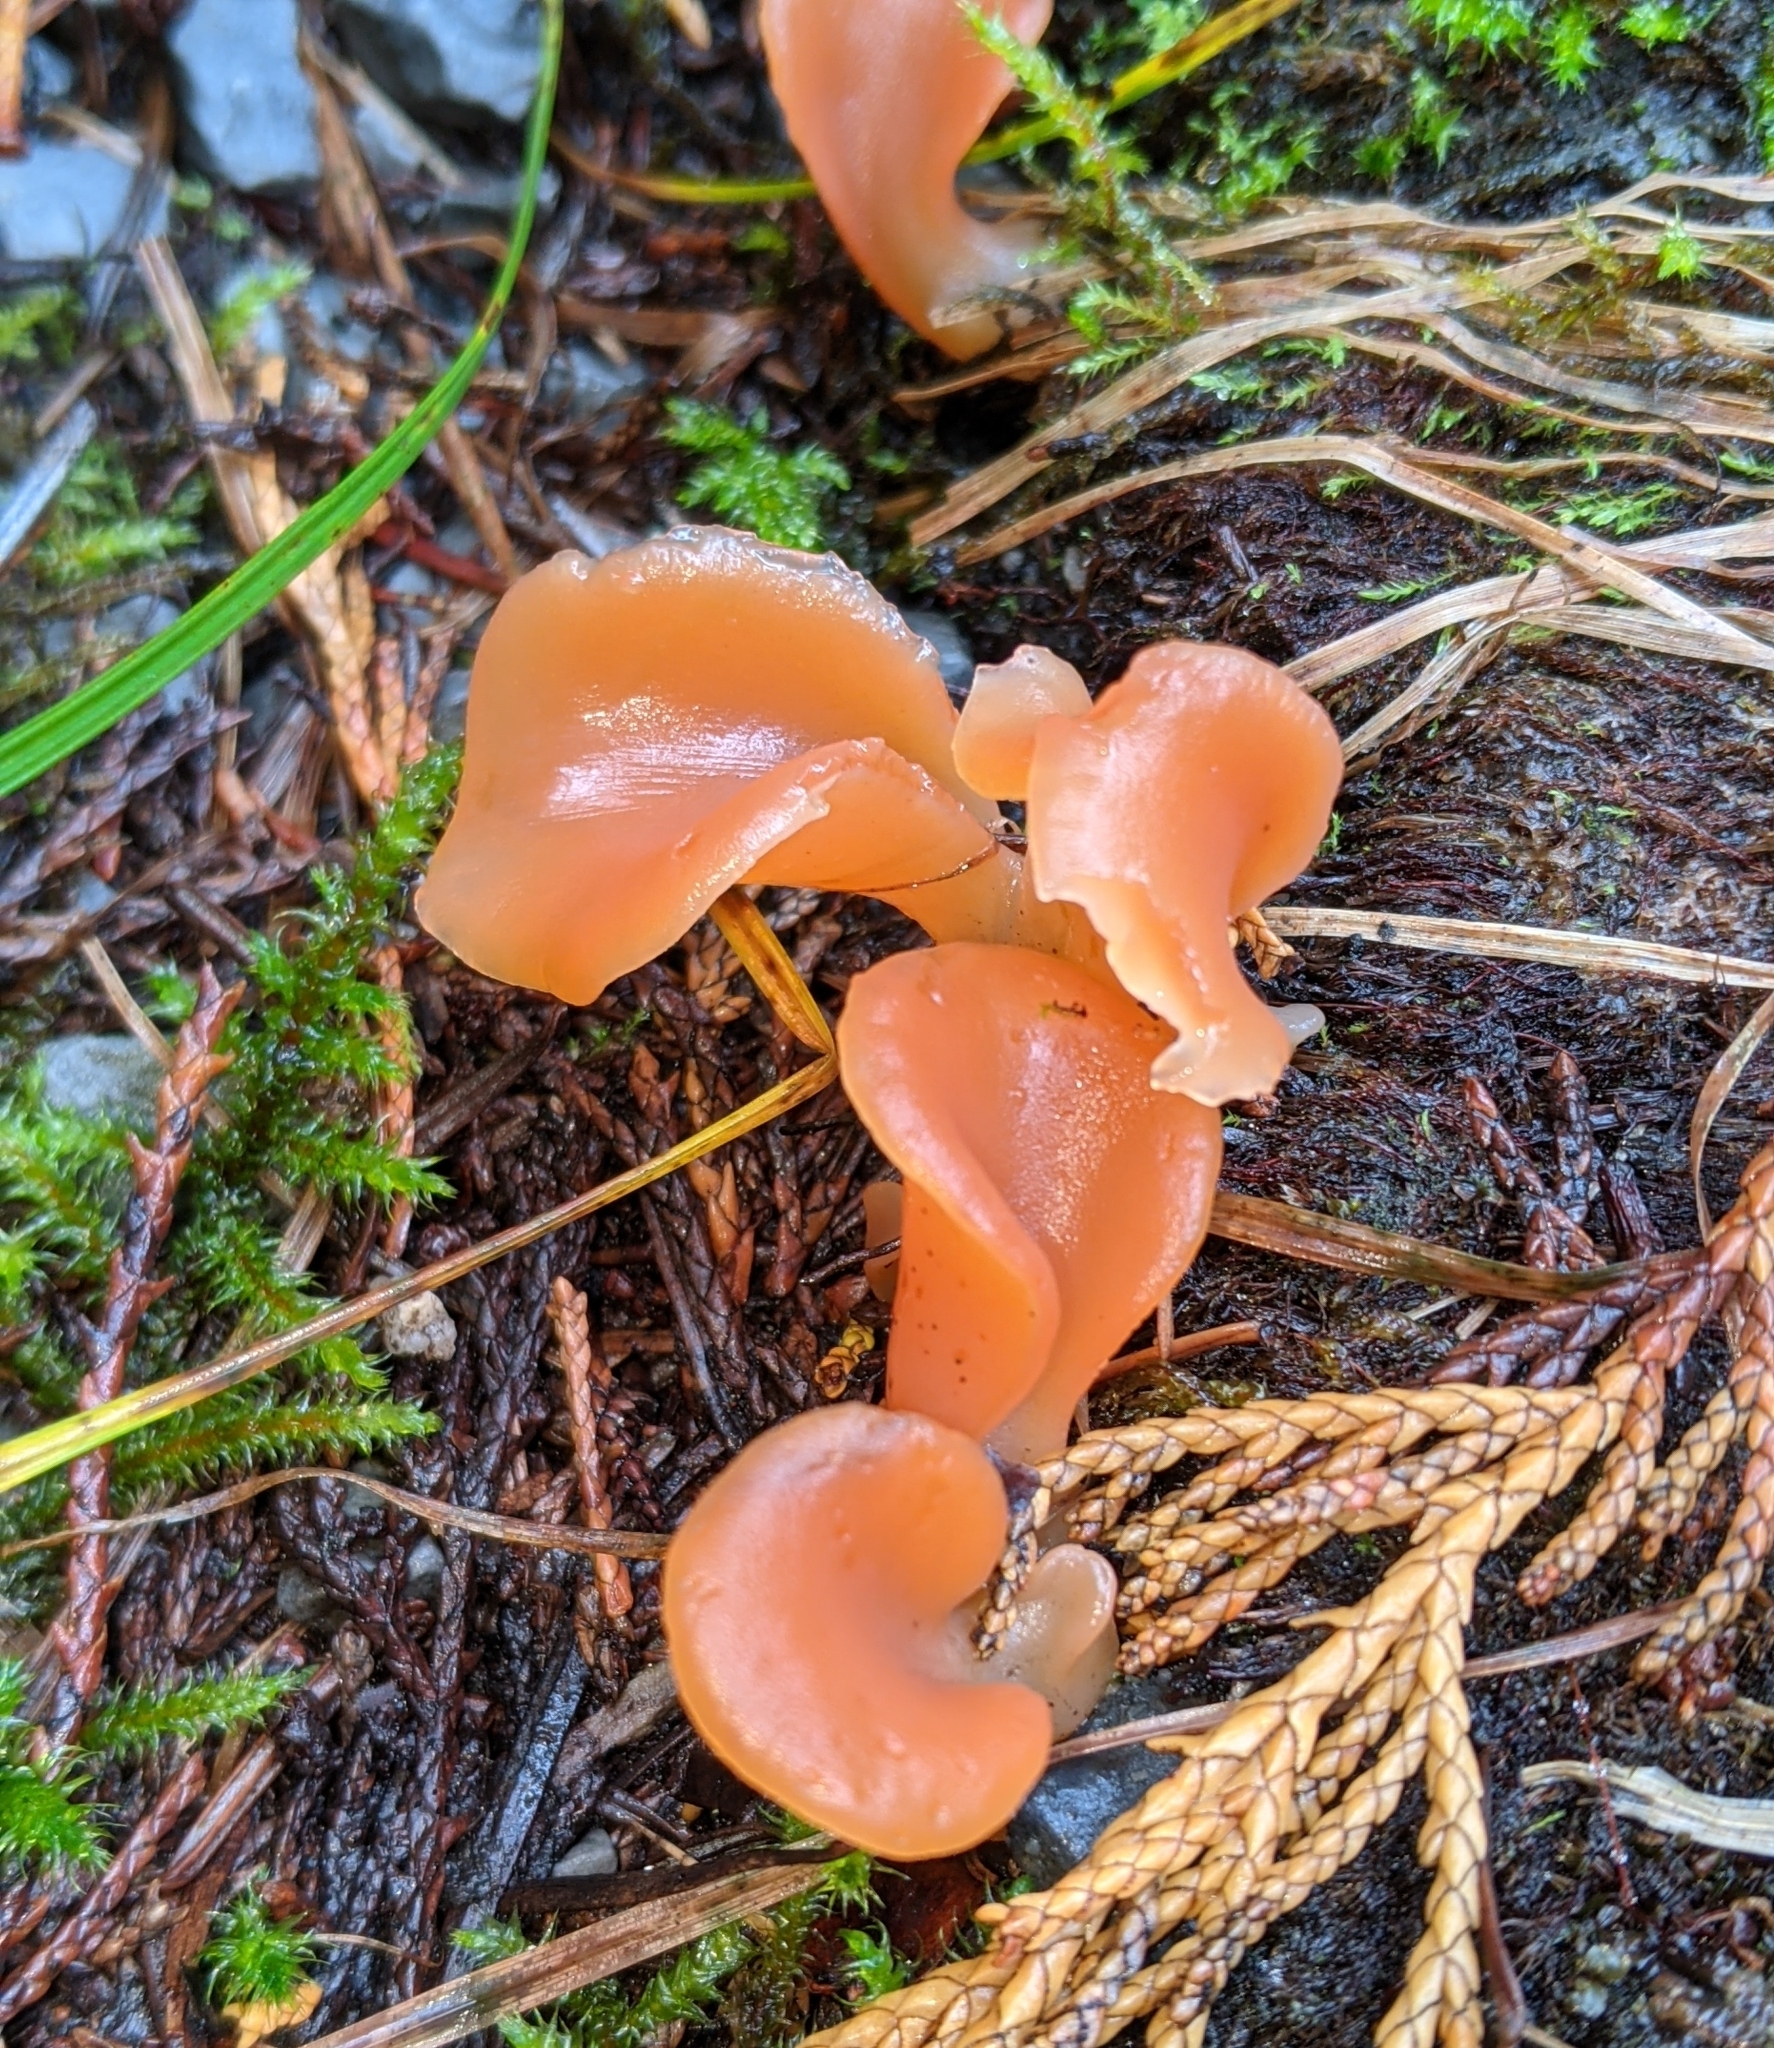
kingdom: Fungi
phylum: Basidiomycota
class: Agaricomycetes
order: Auriculariales
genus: Guepinia
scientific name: Guepinia helvelloides
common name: Salmon salad
